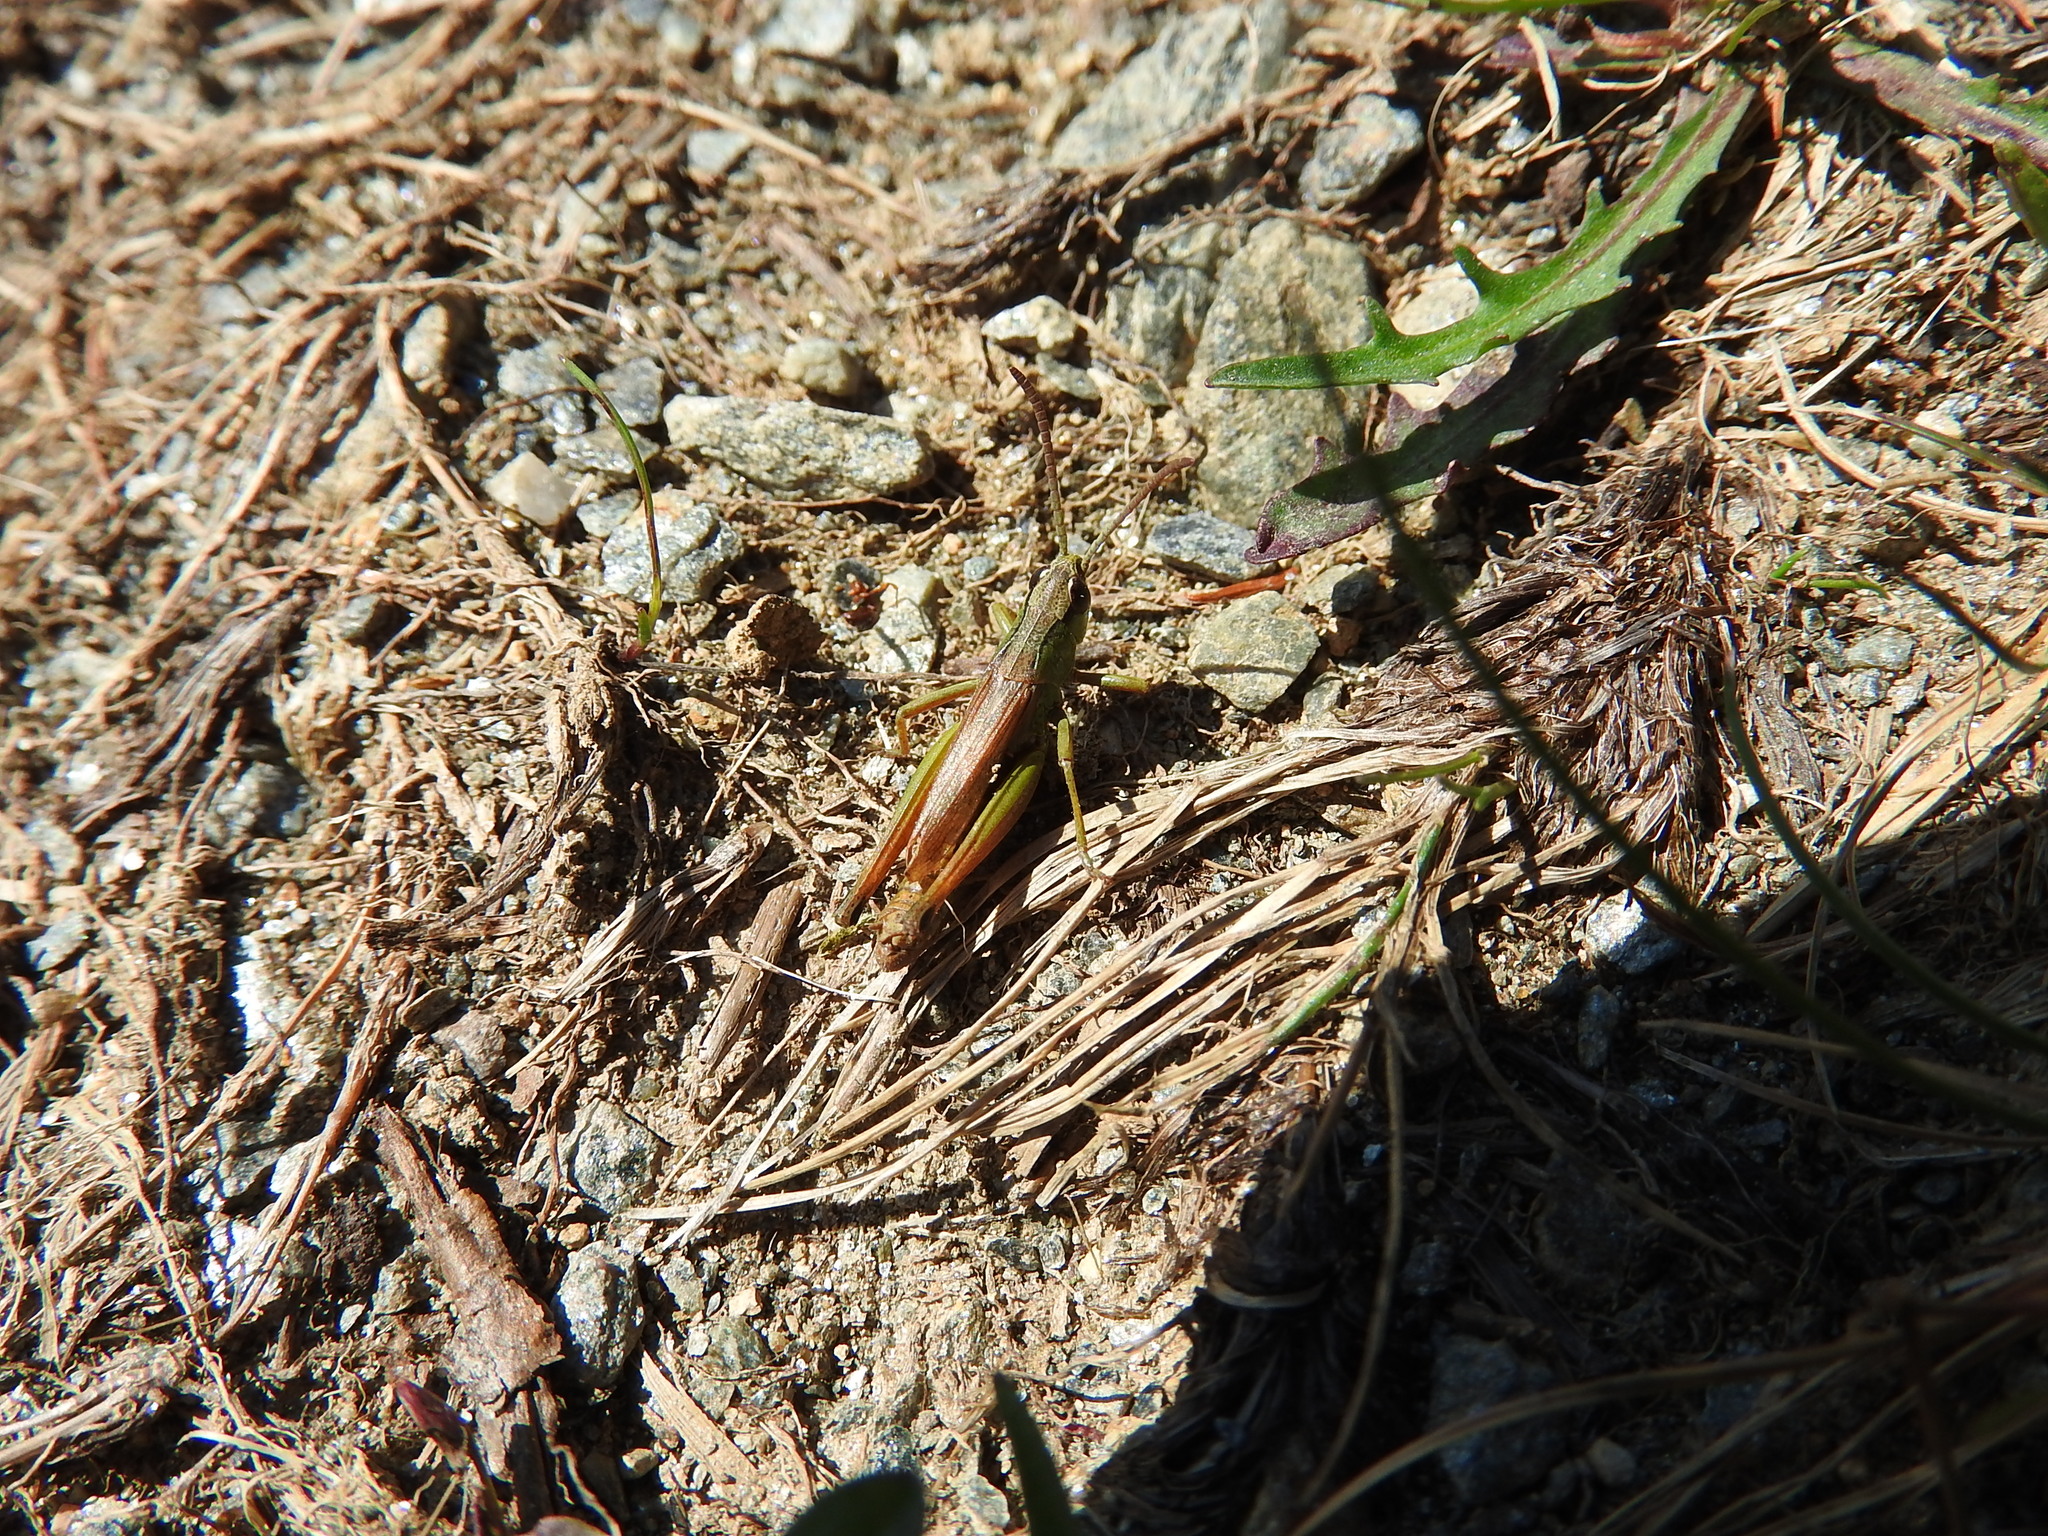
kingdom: Animalia
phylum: Arthropoda
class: Insecta
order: Orthoptera
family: Acrididae
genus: Pseudochorthippus
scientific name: Pseudochorthippus parallelus
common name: Meadow grasshopper
